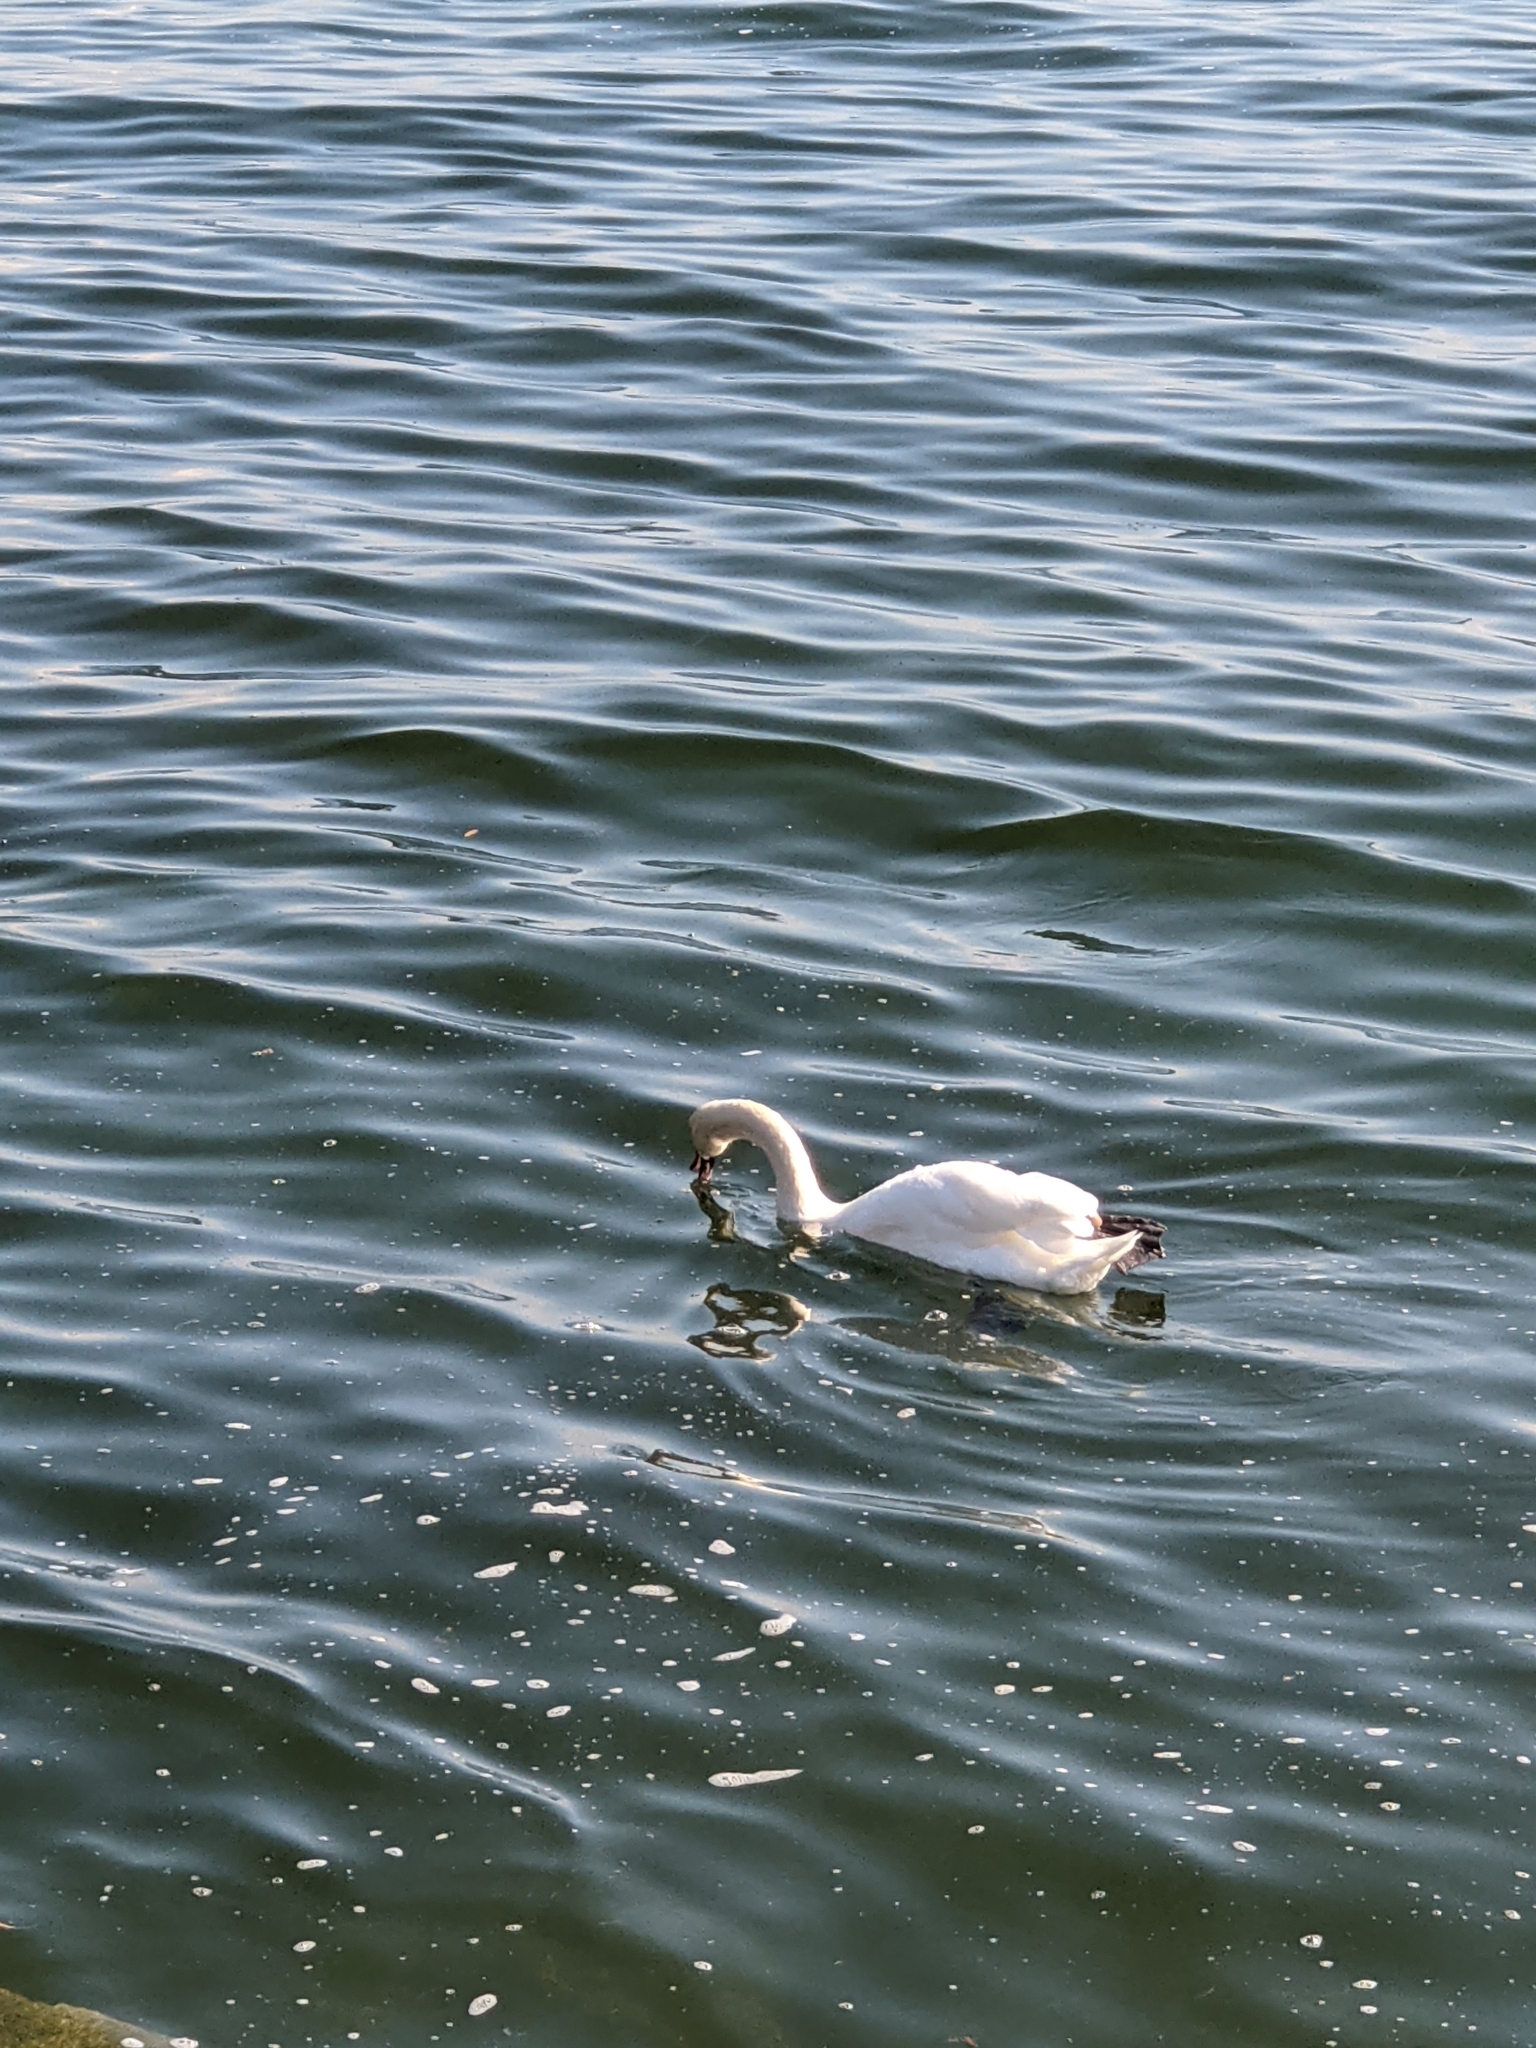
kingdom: Animalia
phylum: Chordata
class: Aves
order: Anseriformes
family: Anatidae
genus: Cygnus
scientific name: Cygnus olor
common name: Mute swan
